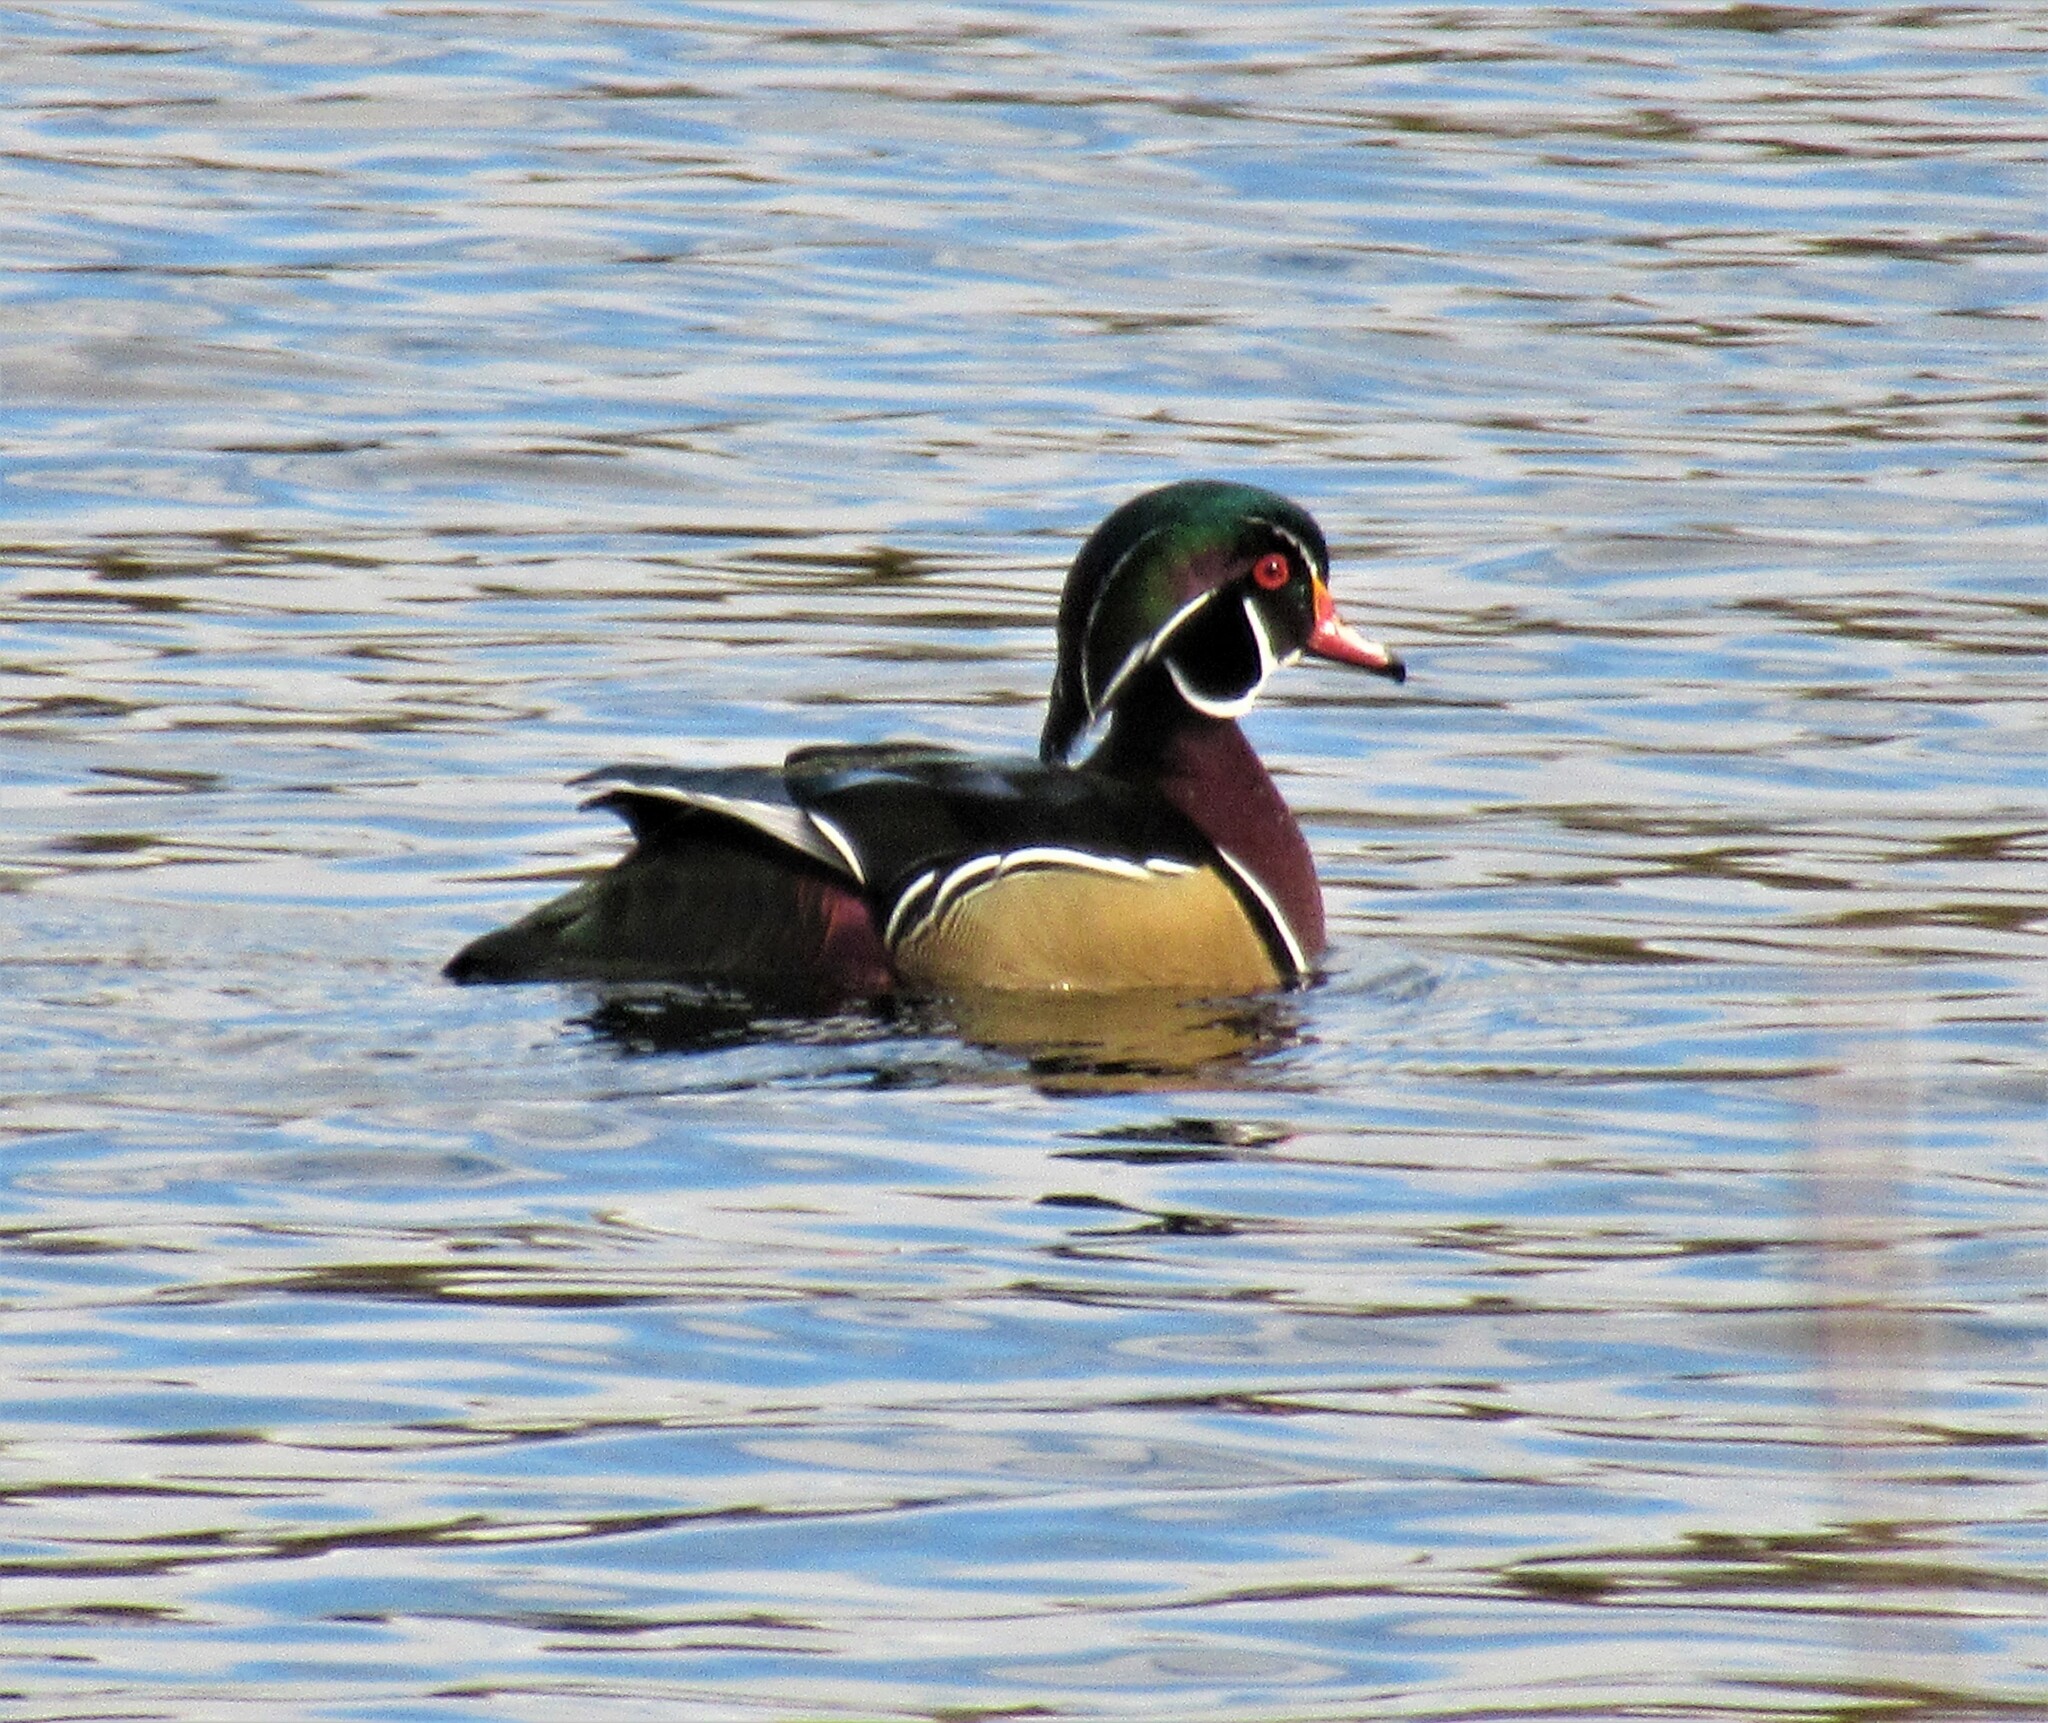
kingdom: Animalia
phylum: Chordata
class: Aves
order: Anseriformes
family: Anatidae
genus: Aix
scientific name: Aix sponsa
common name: Wood duck
